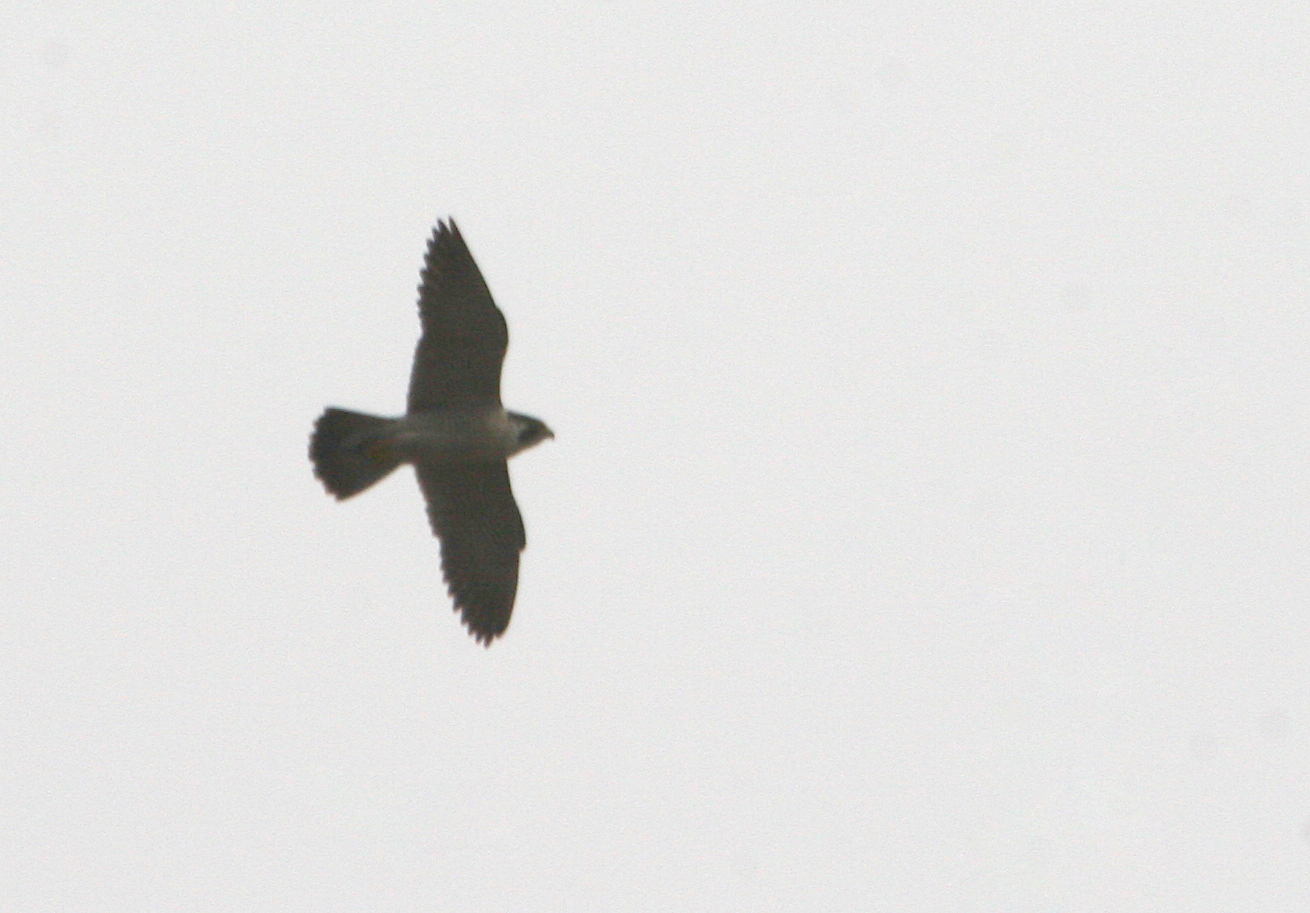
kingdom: Animalia
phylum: Chordata
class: Aves
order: Falconiformes
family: Falconidae
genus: Falco
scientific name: Falco peregrinus
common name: Peregrine falcon
